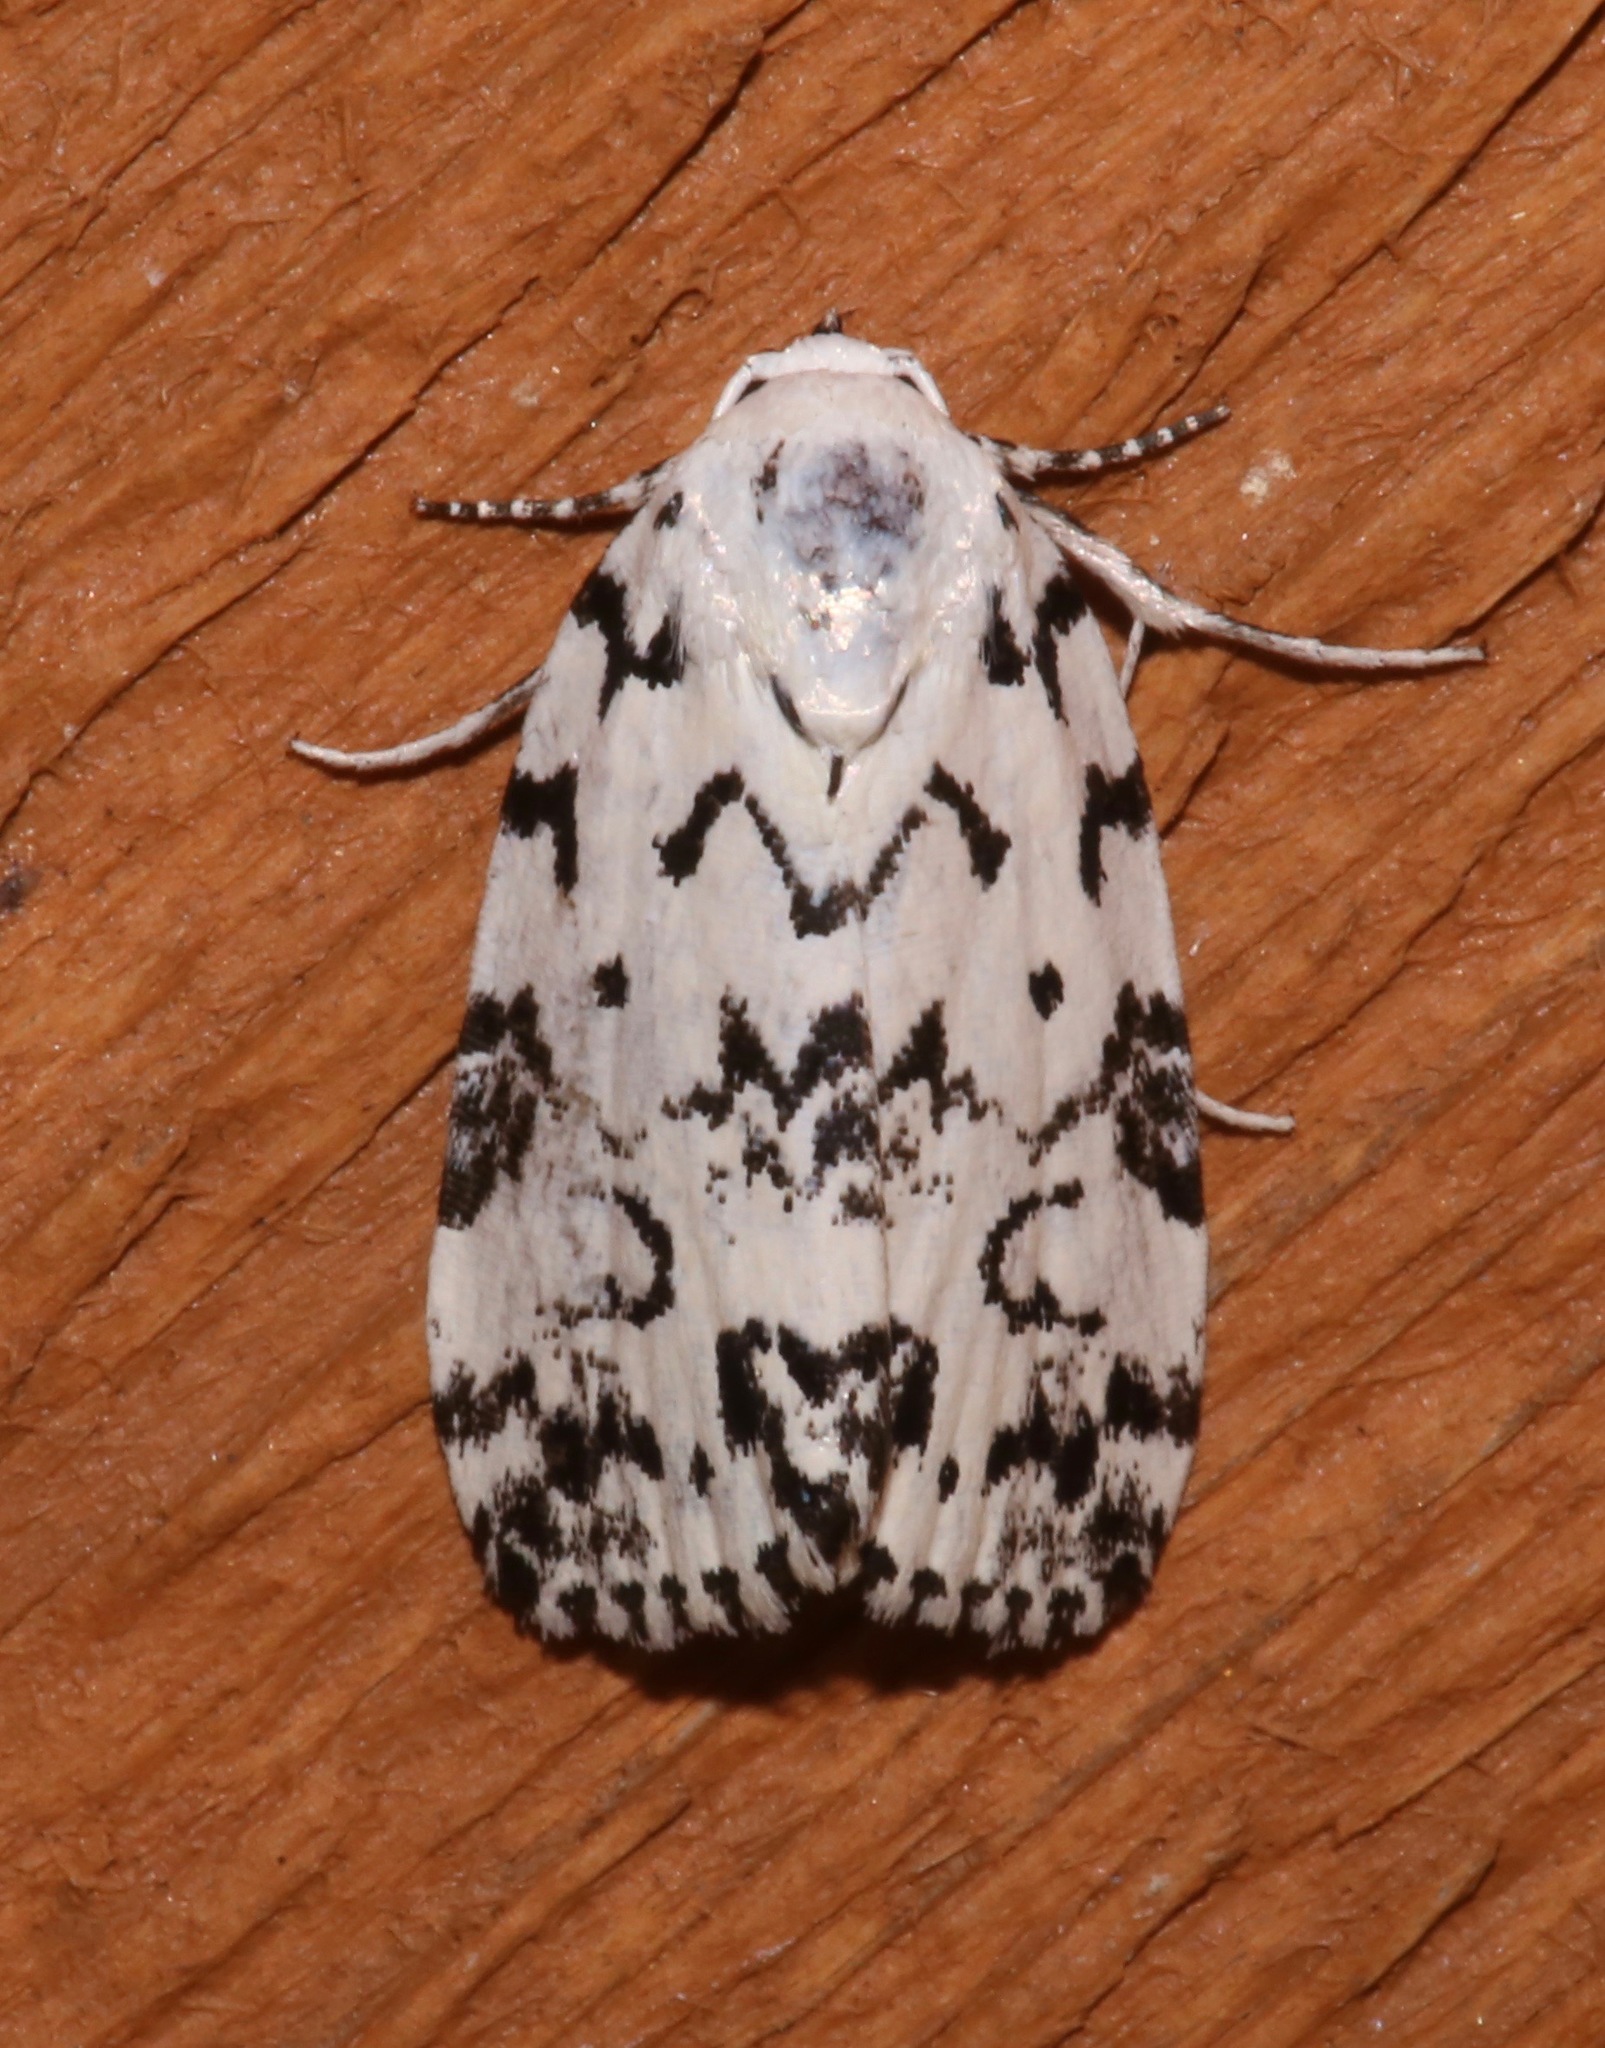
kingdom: Animalia
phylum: Arthropoda
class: Insecta
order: Lepidoptera
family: Noctuidae
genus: Polygrammate
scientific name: Polygrammate hebraeicum
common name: Hebrew moth
